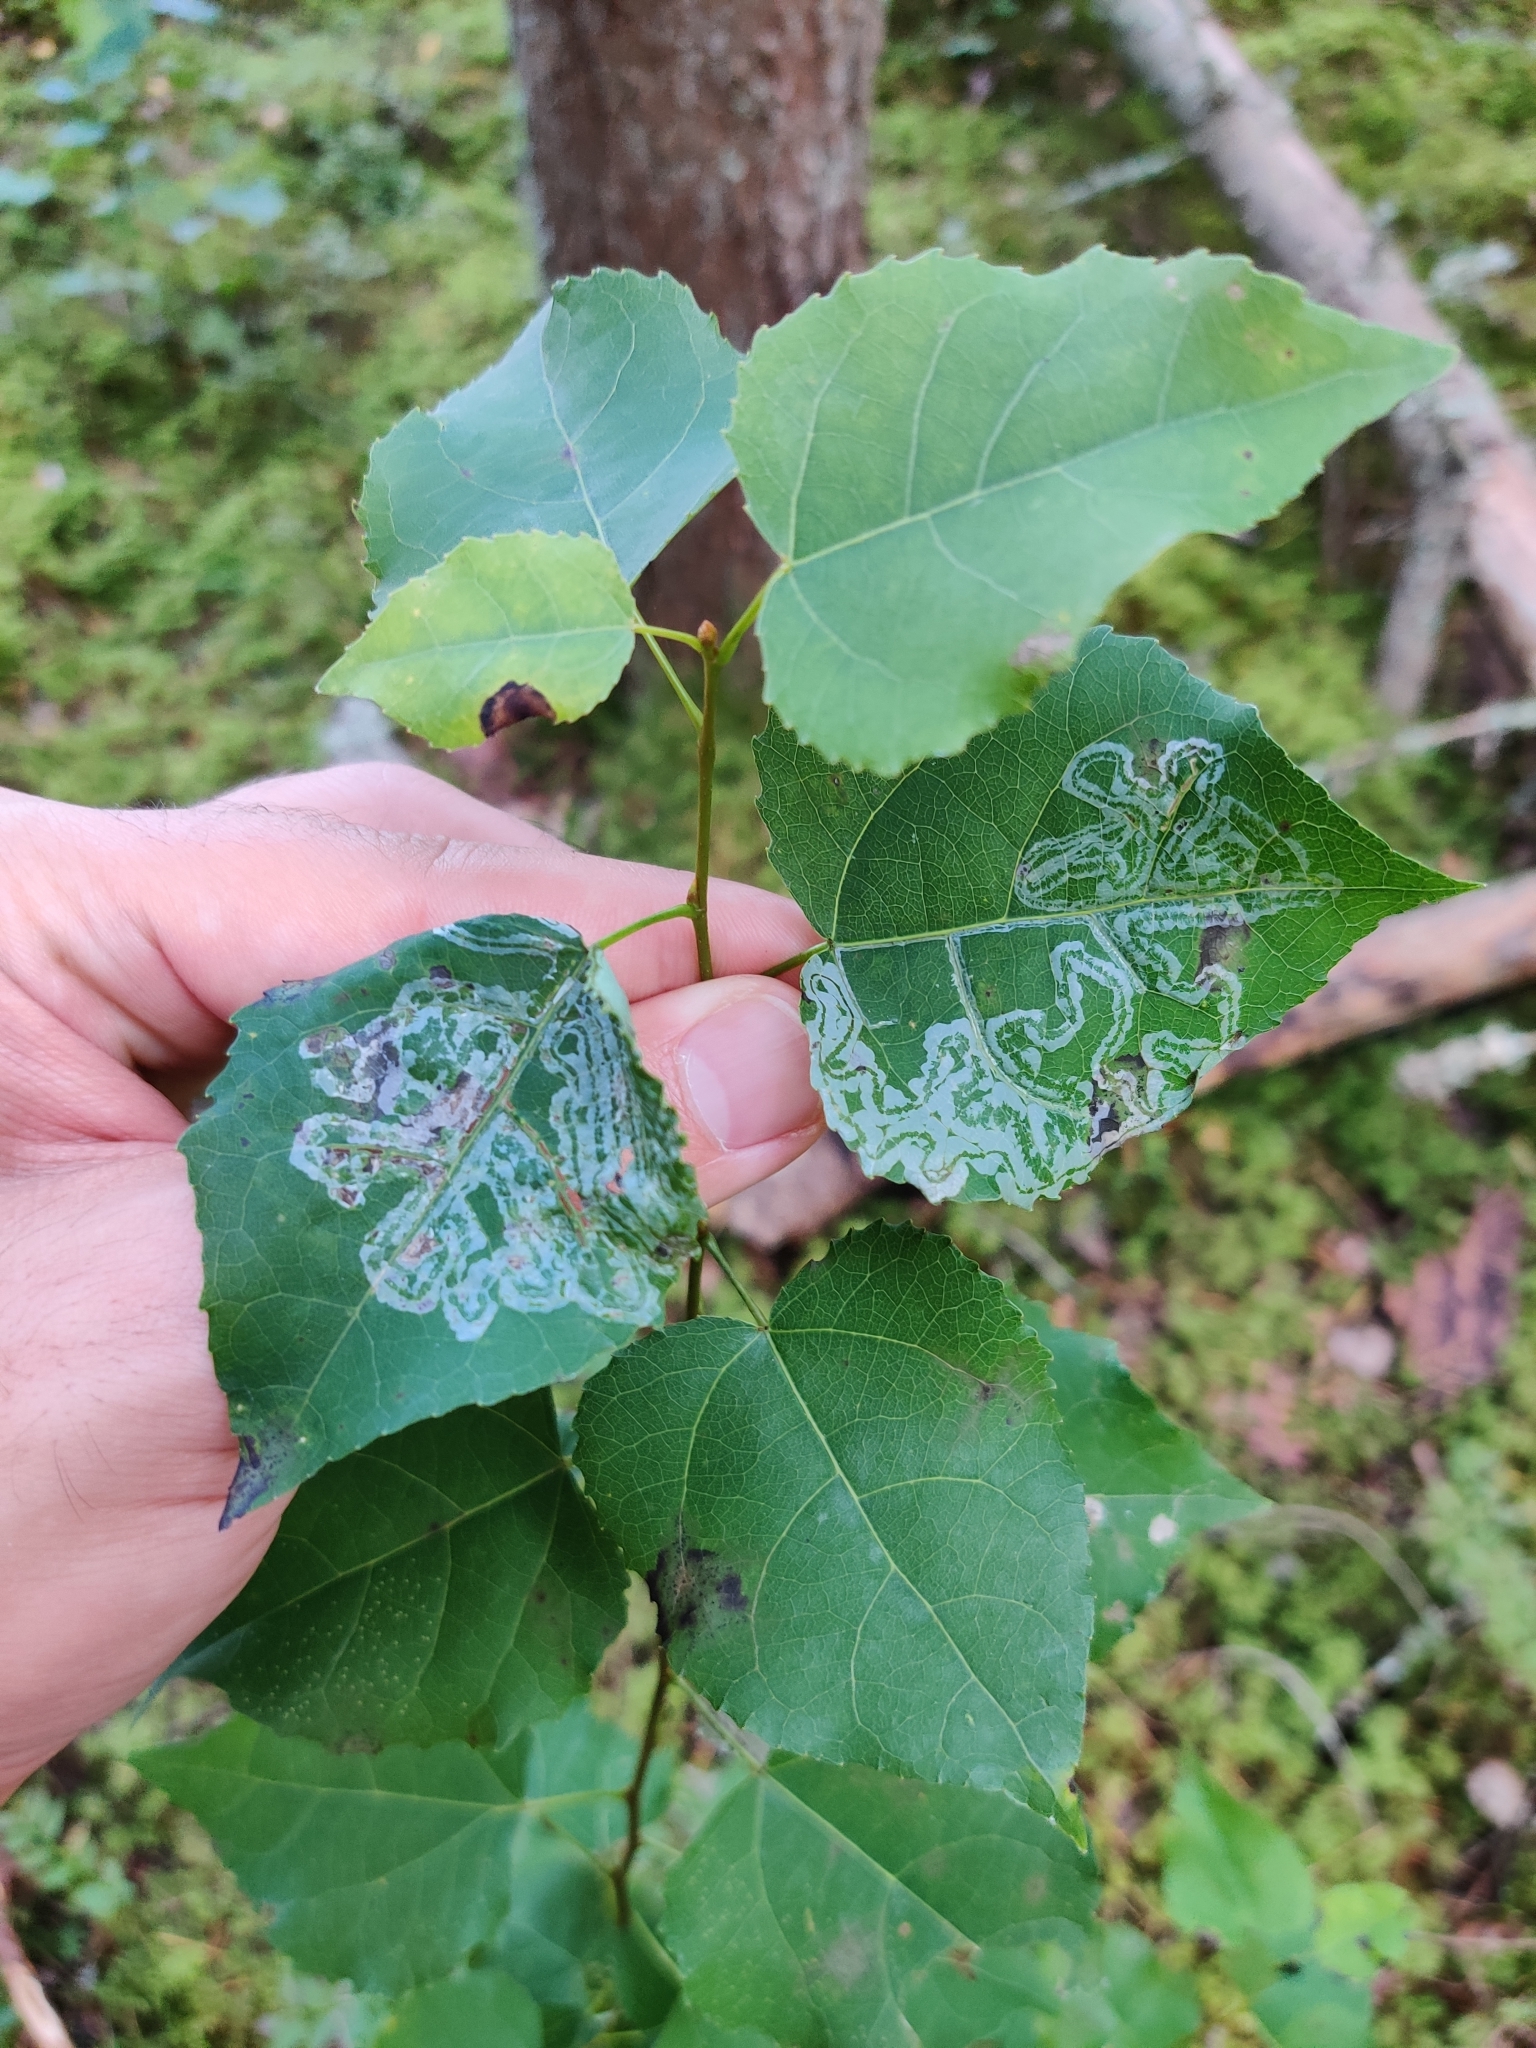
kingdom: Animalia
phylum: Arthropoda
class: Insecta
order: Lepidoptera
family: Gracillariidae
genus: Phyllocnistis
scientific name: Phyllocnistis labyrinthella
